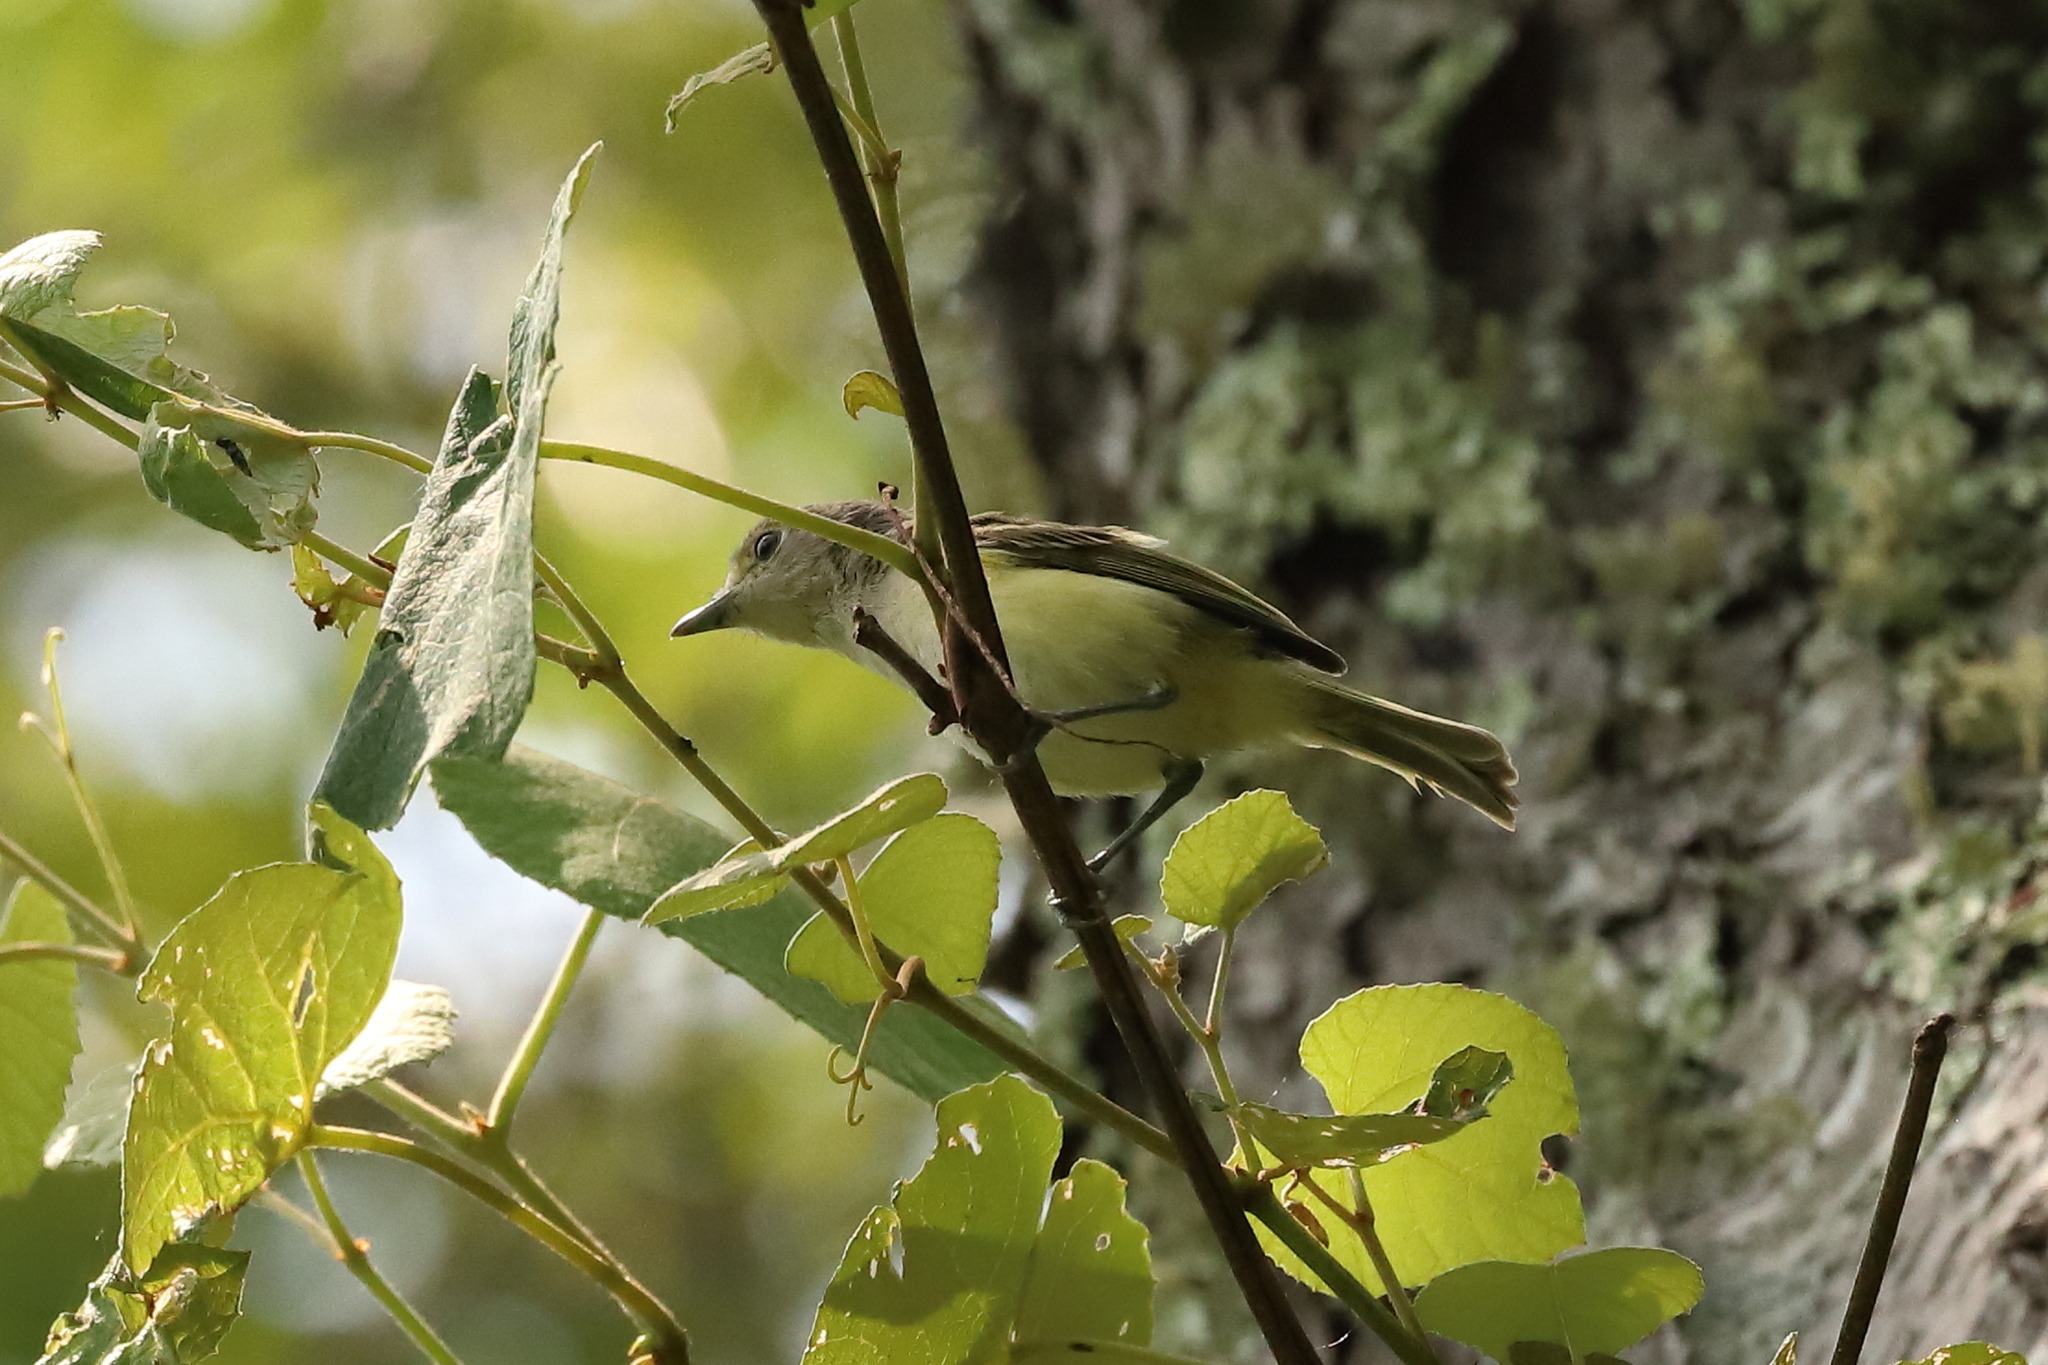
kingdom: Animalia
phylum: Chordata
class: Aves
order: Passeriformes
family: Vireonidae
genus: Vireo
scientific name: Vireo gilvus
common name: Warbling vireo
